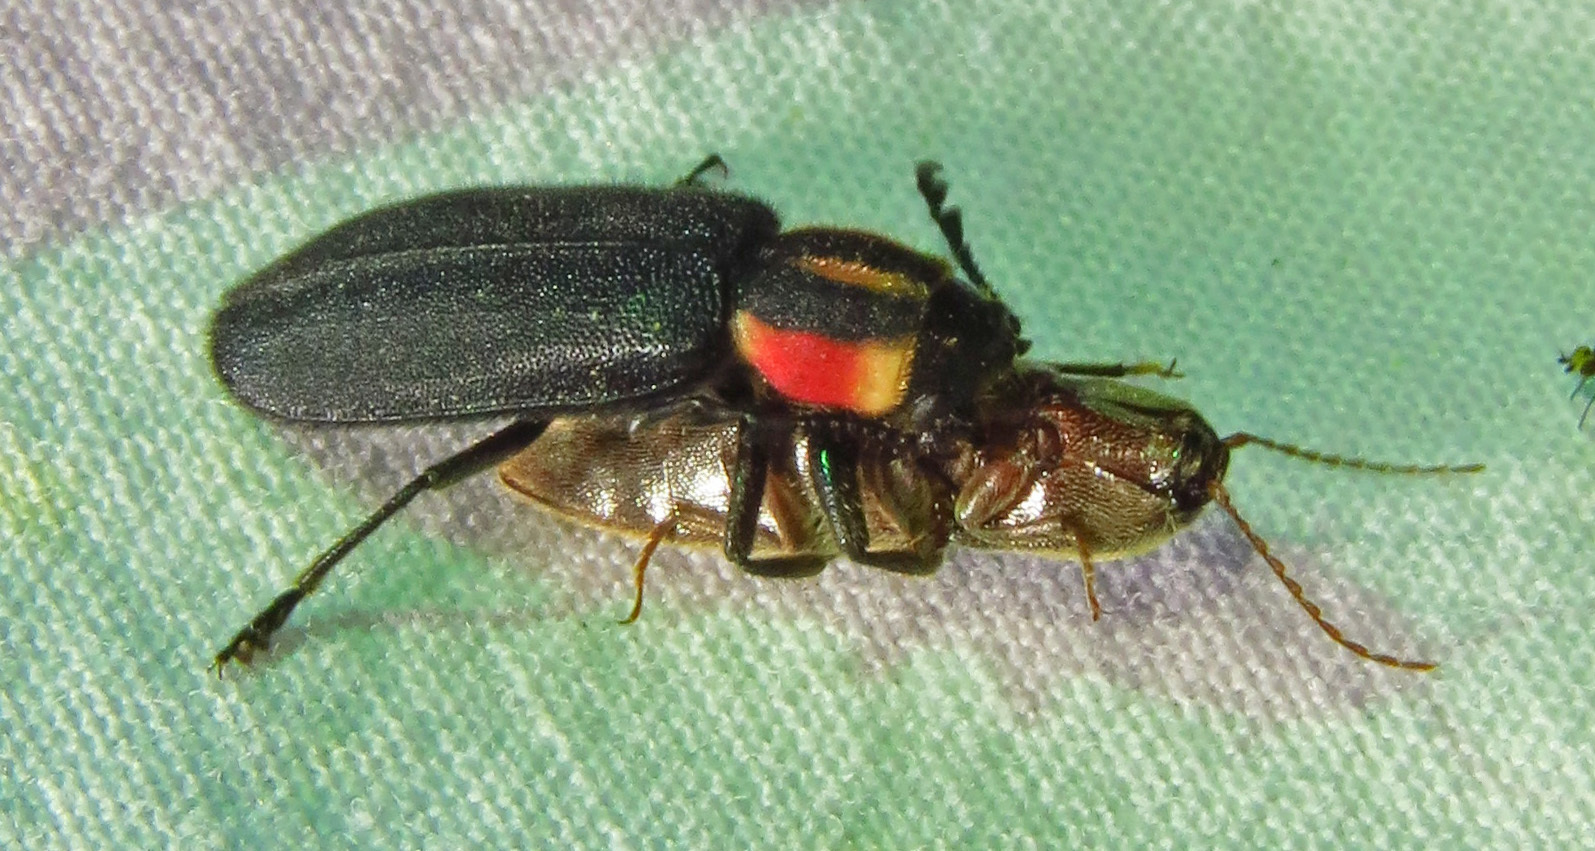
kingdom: Animalia
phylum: Arthropoda
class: Insecta
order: Coleoptera
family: Cleridae
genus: Chariessa
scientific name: Chariessa pilosa
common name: Pilose checkered beetle
